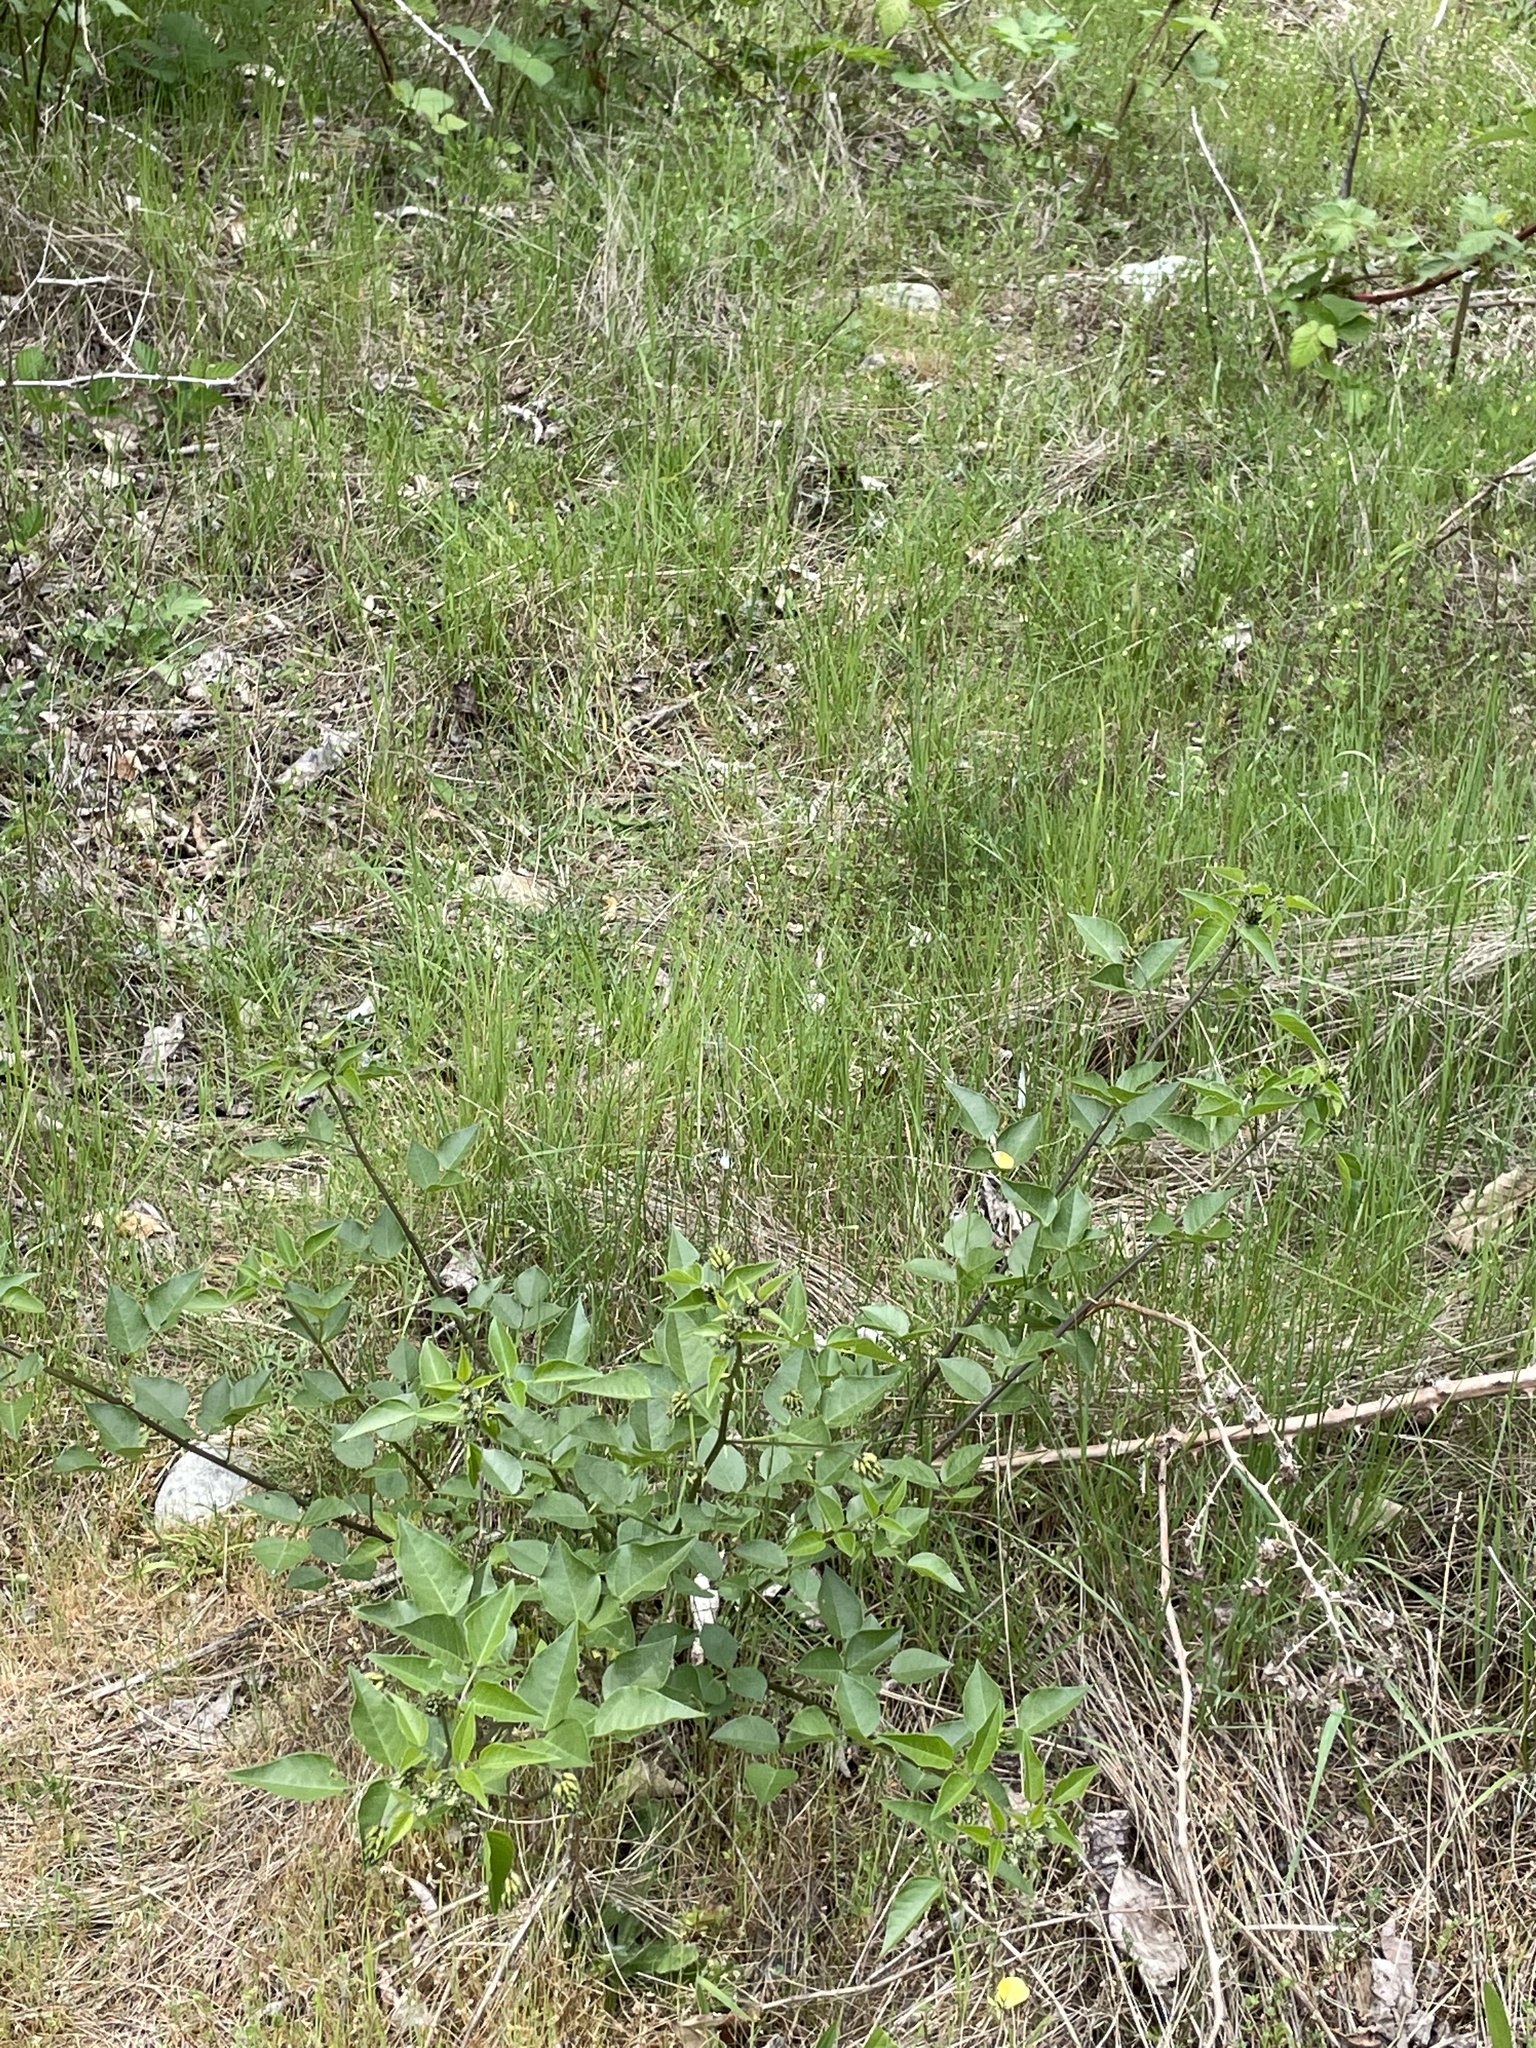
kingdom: Plantae
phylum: Tracheophyta
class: Magnoliopsida
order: Fabales
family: Fabaceae
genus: Rupertia
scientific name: Rupertia physodes
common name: California-tea
